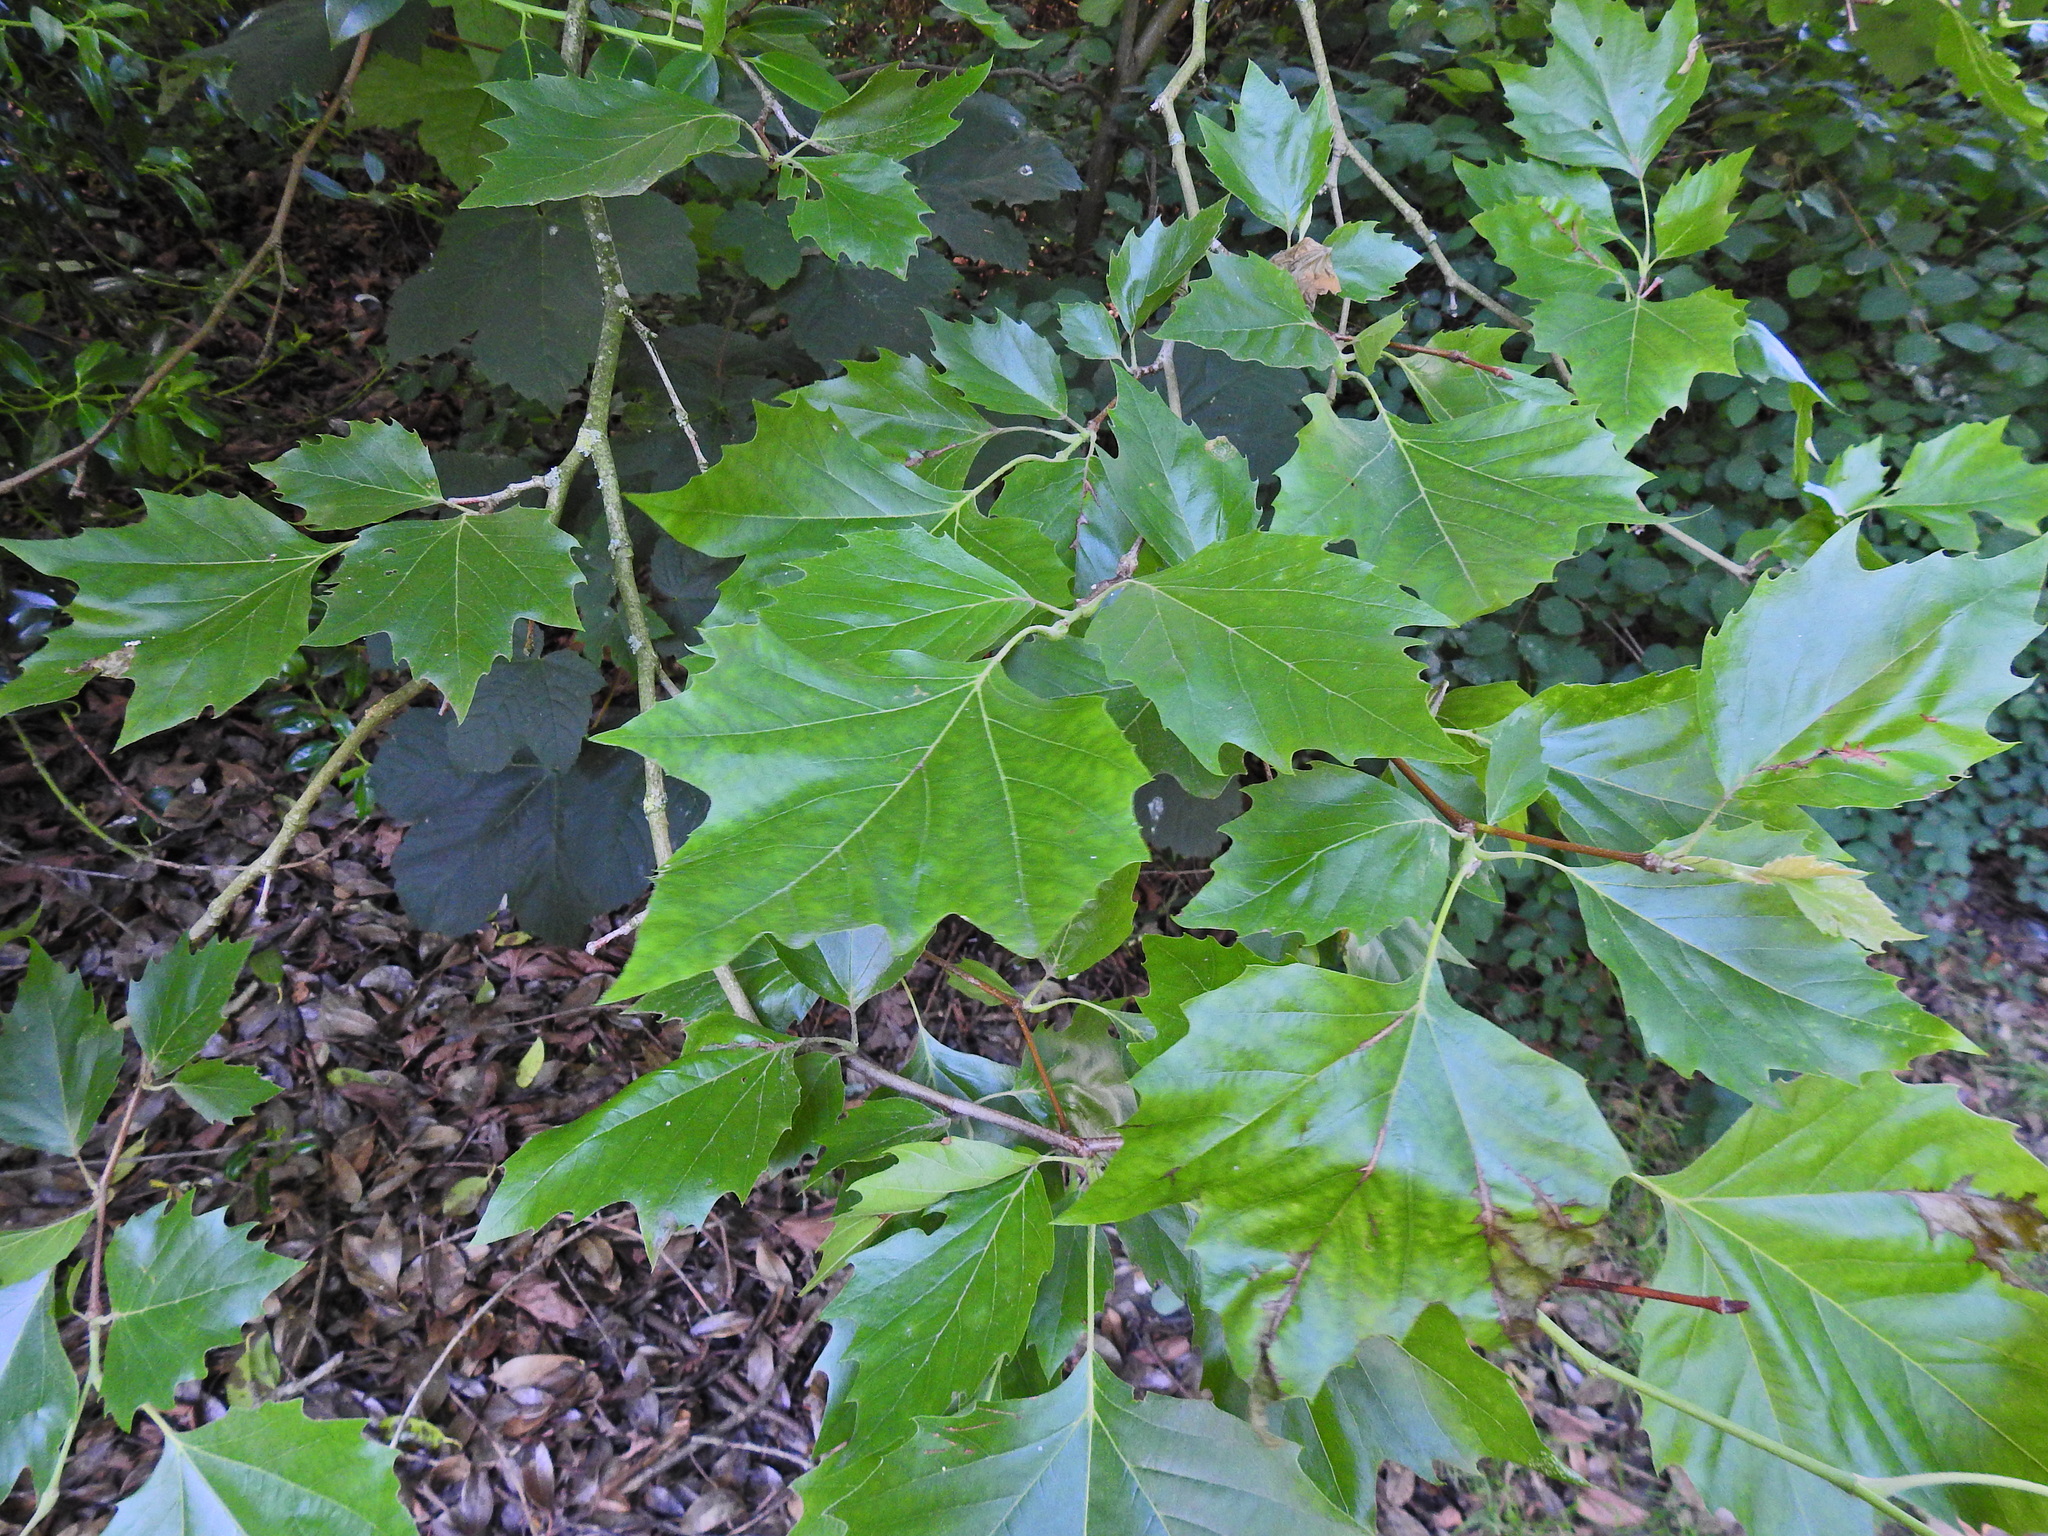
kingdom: Plantae
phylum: Tracheophyta
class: Magnoliopsida
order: Proteales
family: Platanaceae
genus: Platanus
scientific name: Platanus hispanica
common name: London plane
